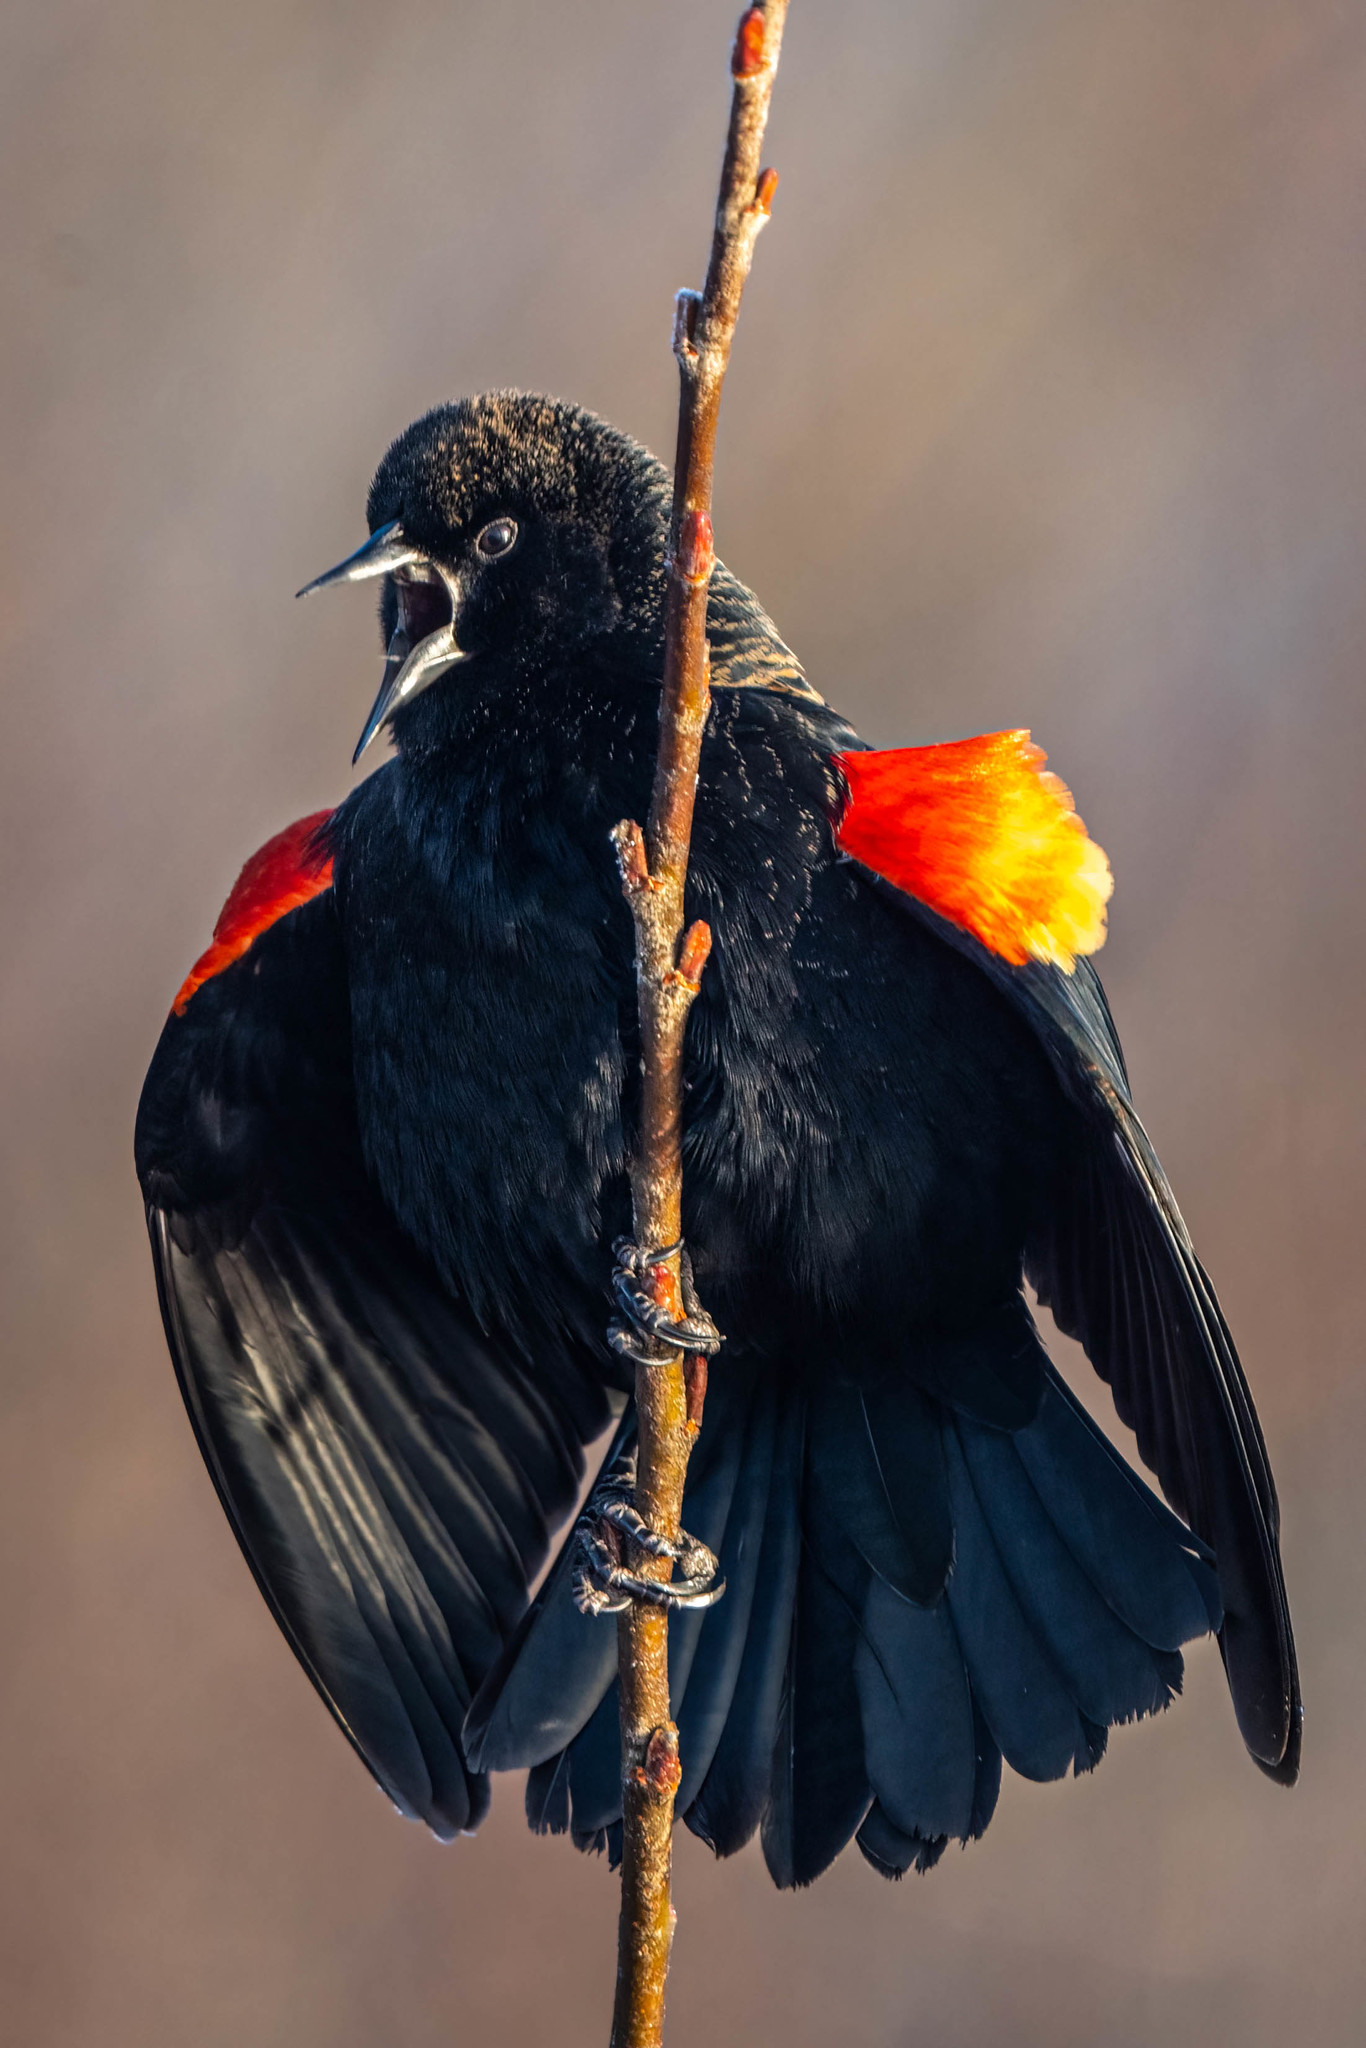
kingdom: Animalia
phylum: Chordata
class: Aves
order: Passeriformes
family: Icteridae
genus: Agelaius
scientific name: Agelaius phoeniceus
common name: Red-winged blackbird
